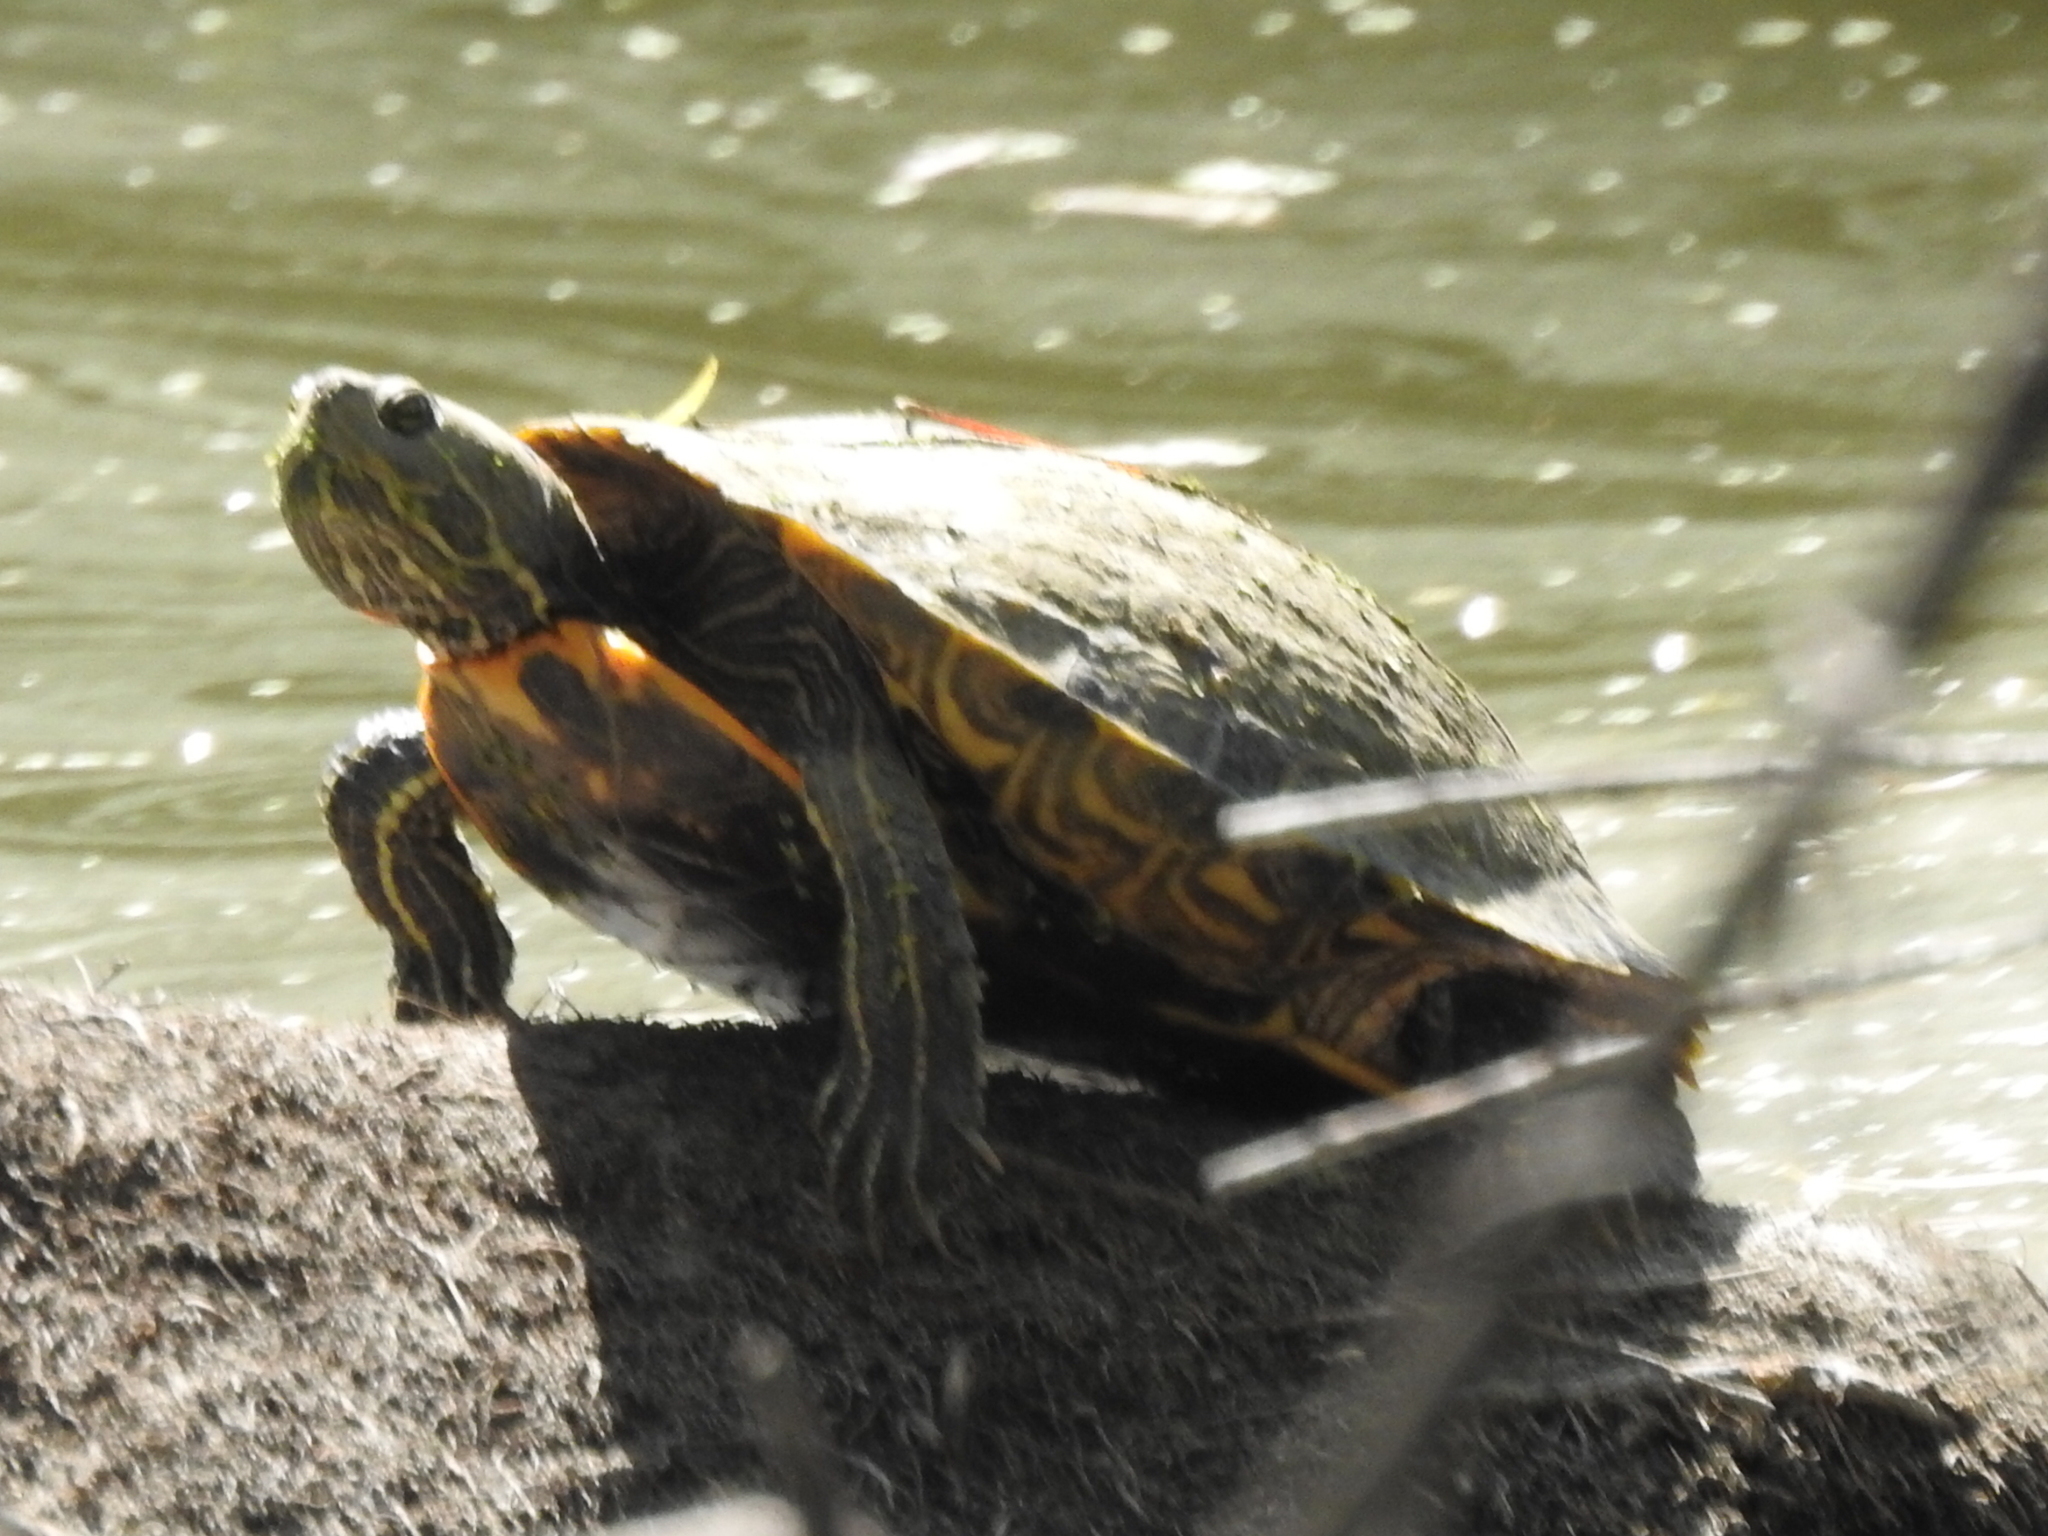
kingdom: Animalia
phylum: Chordata
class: Testudines
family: Emydidae
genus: Trachemys
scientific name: Trachemys scripta
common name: Slider
